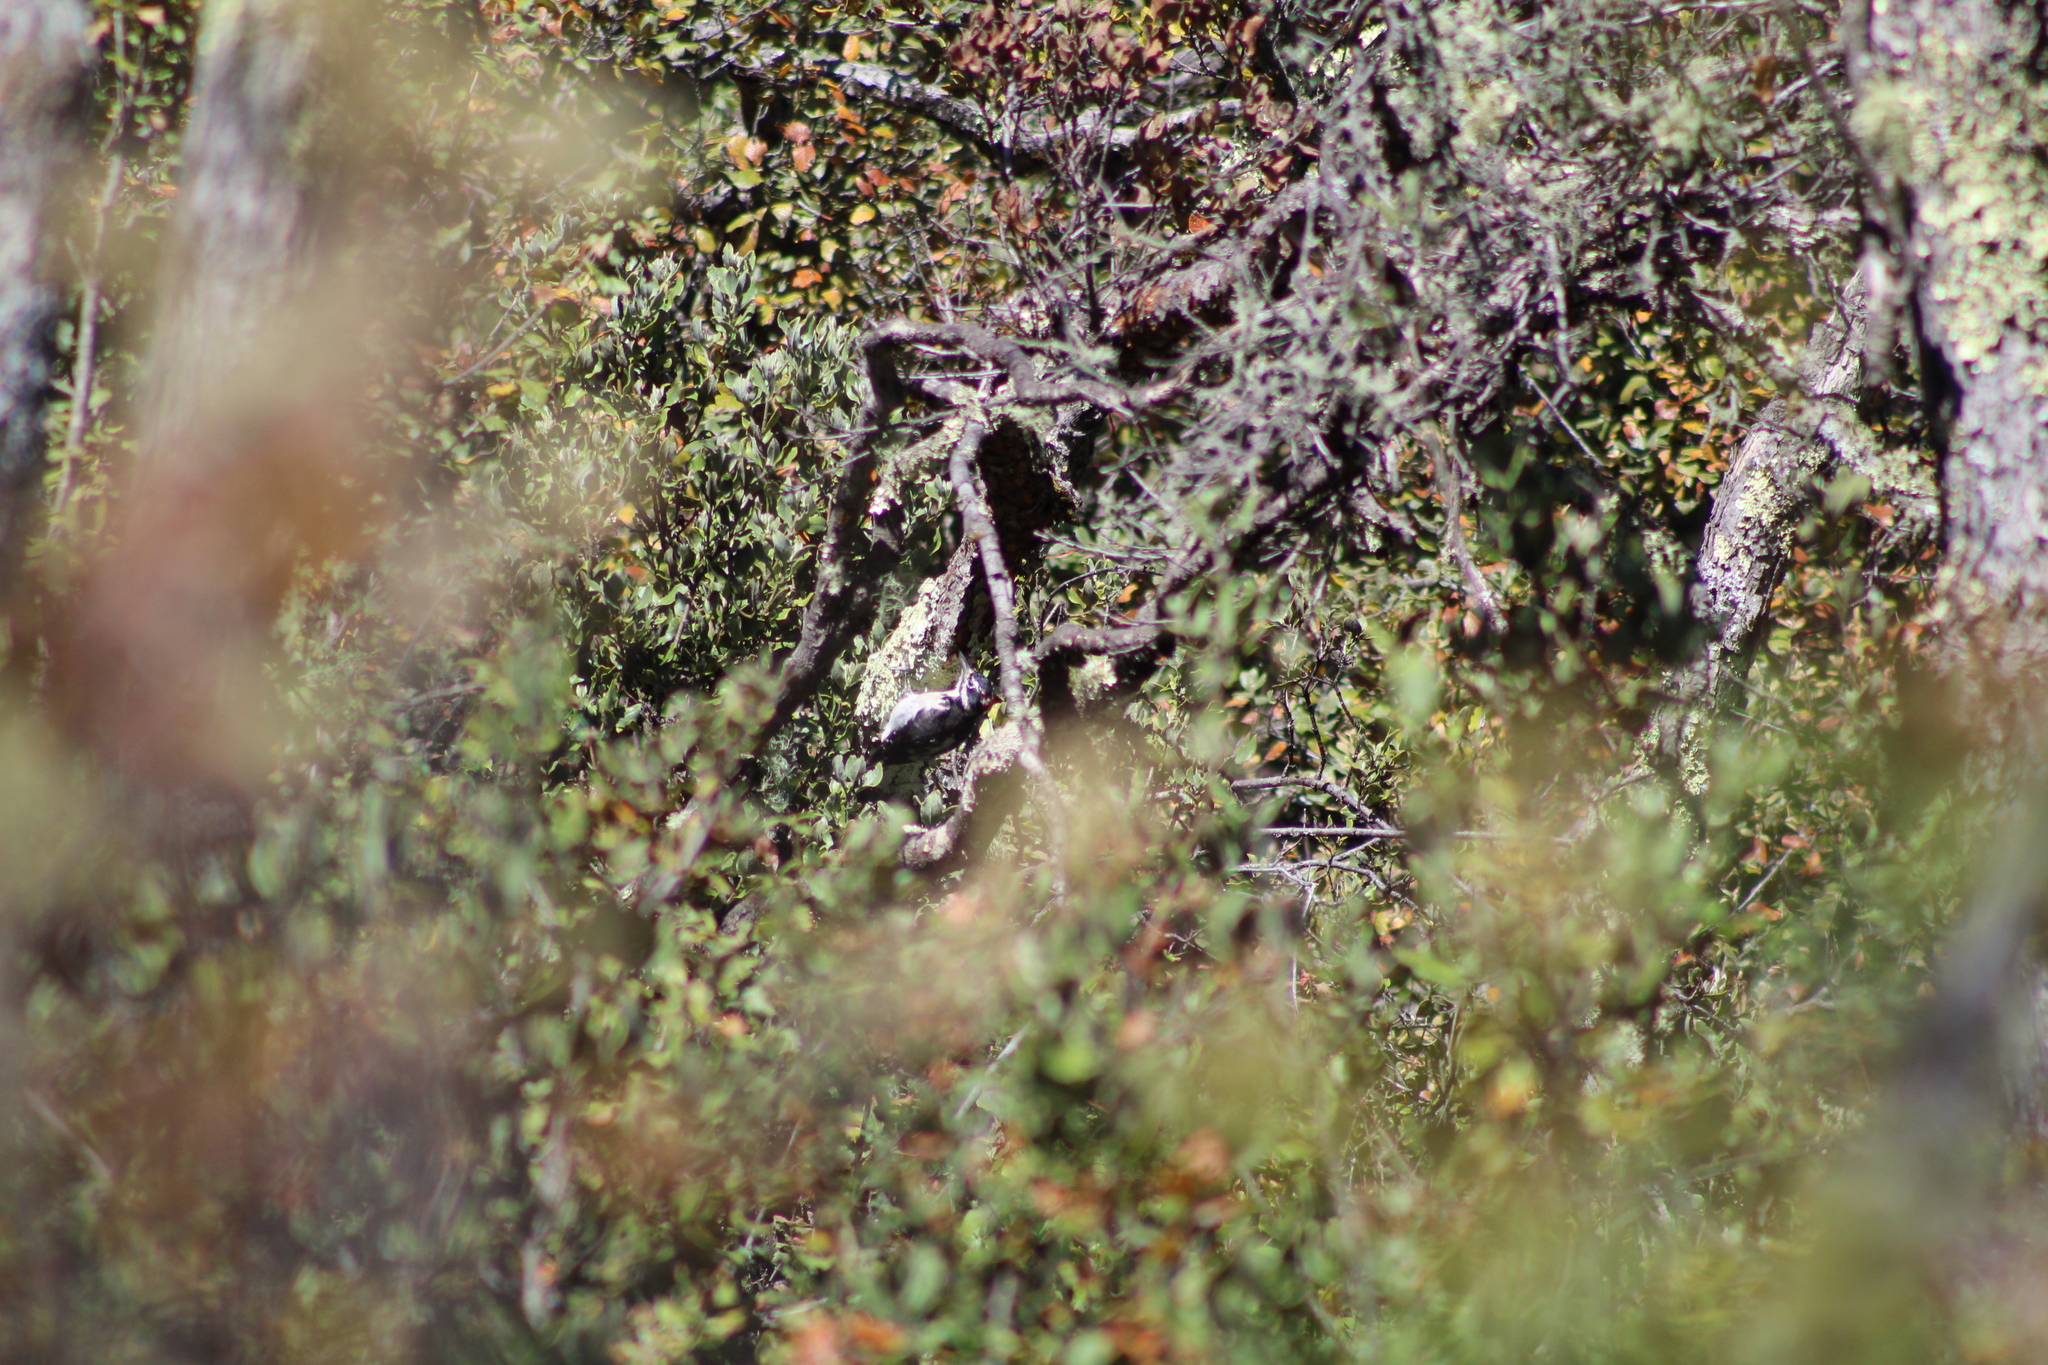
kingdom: Animalia
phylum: Chordata
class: Aves
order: Piciformes
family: Picidae
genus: Leuconotopicus
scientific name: Leuconotopicus villosus
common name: Hairy woodpecker
